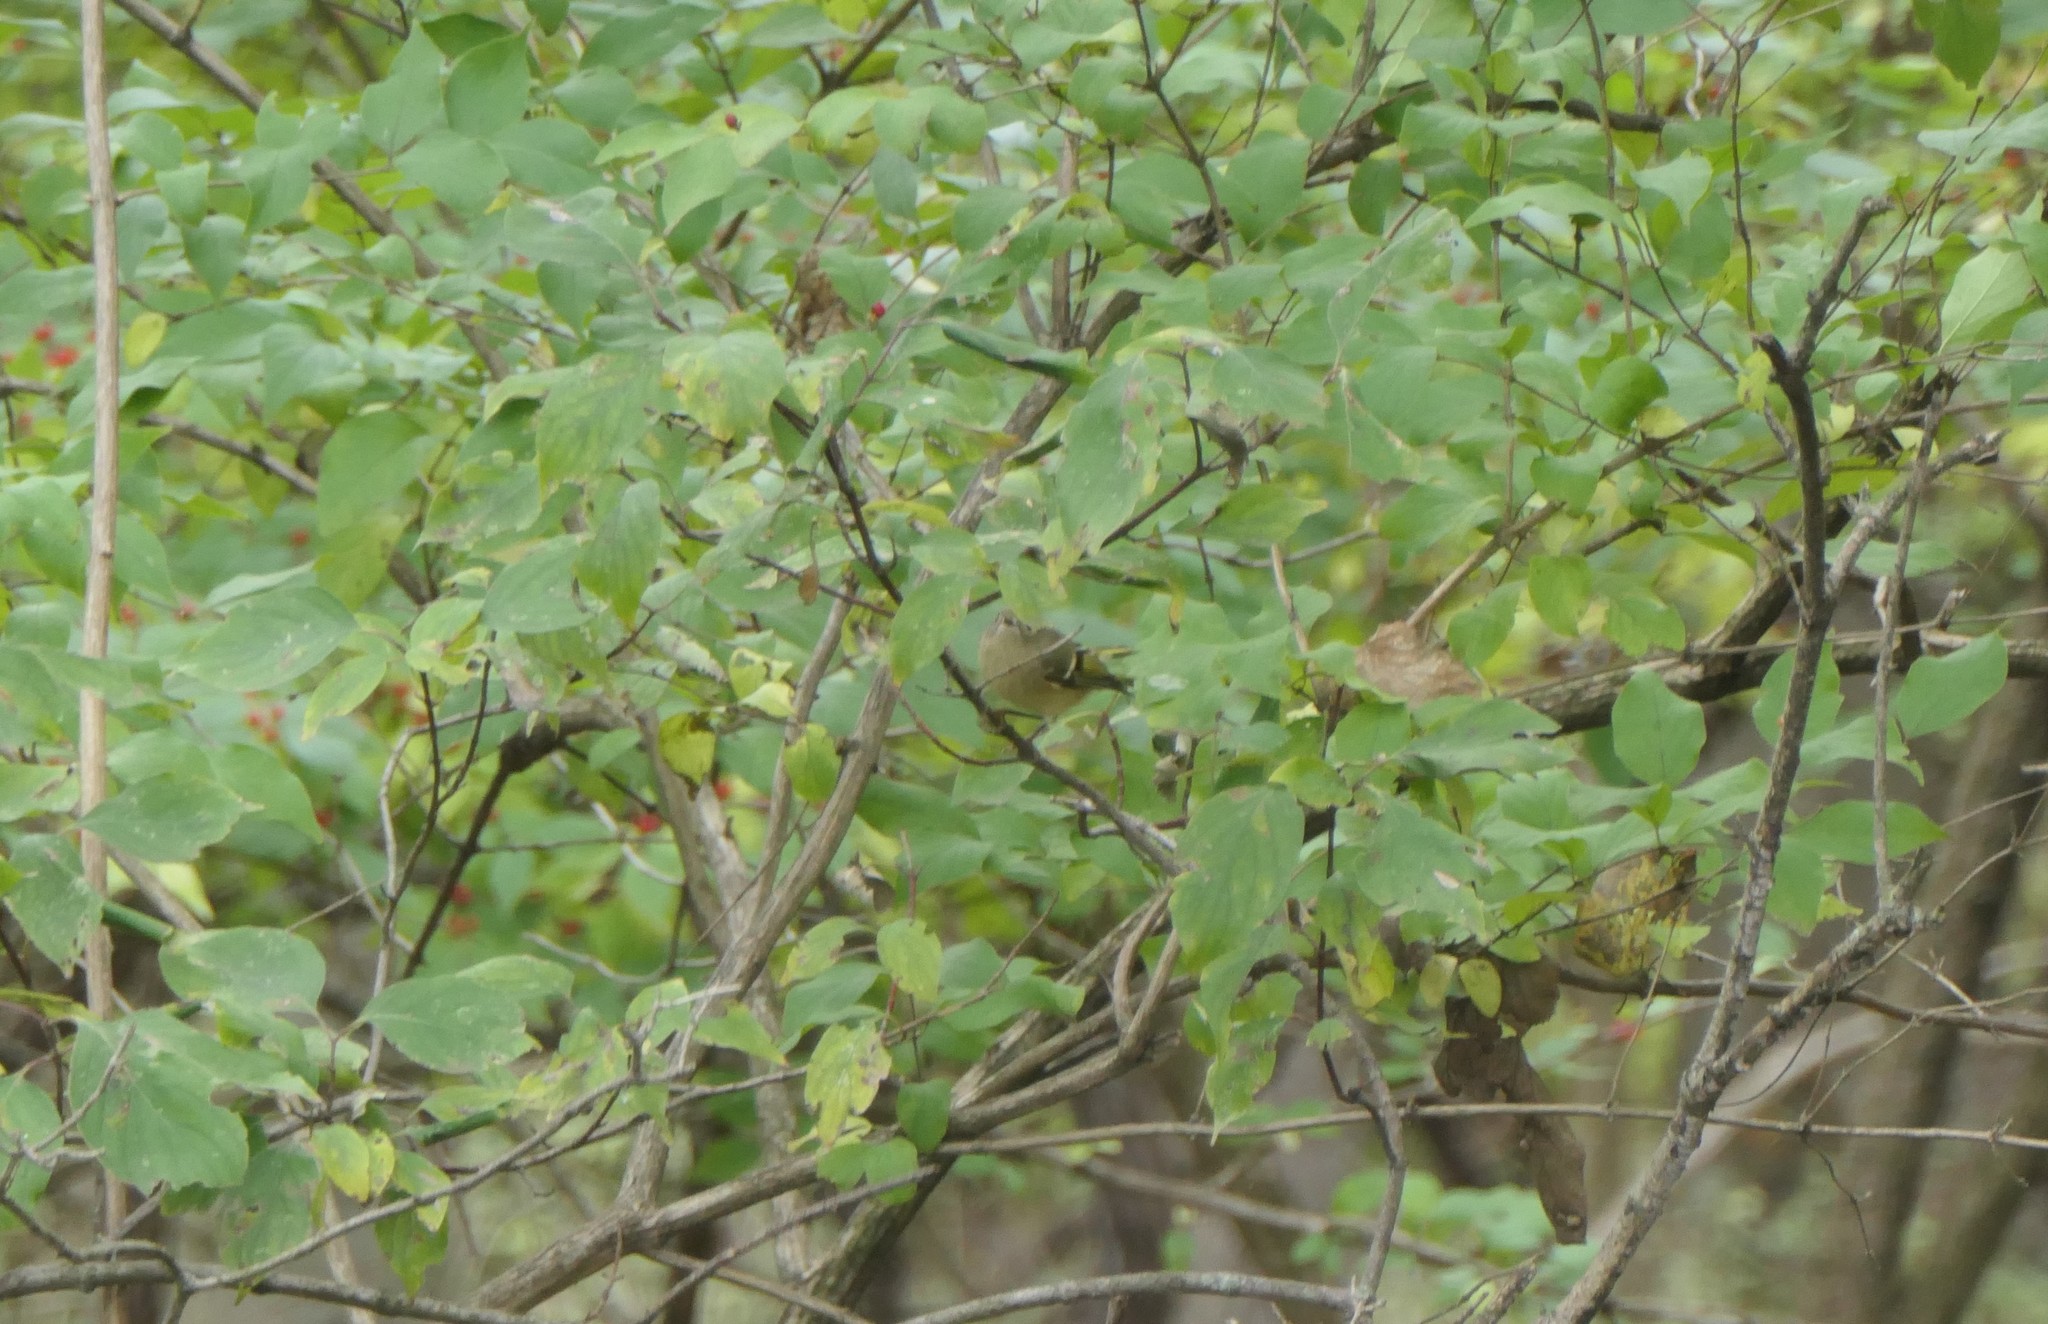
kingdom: Animalia
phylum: Chordata
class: Aves
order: Passeriformes
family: Regulidae
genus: Regulus
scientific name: Regulus calendula
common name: Ruby-crowned kinglet
